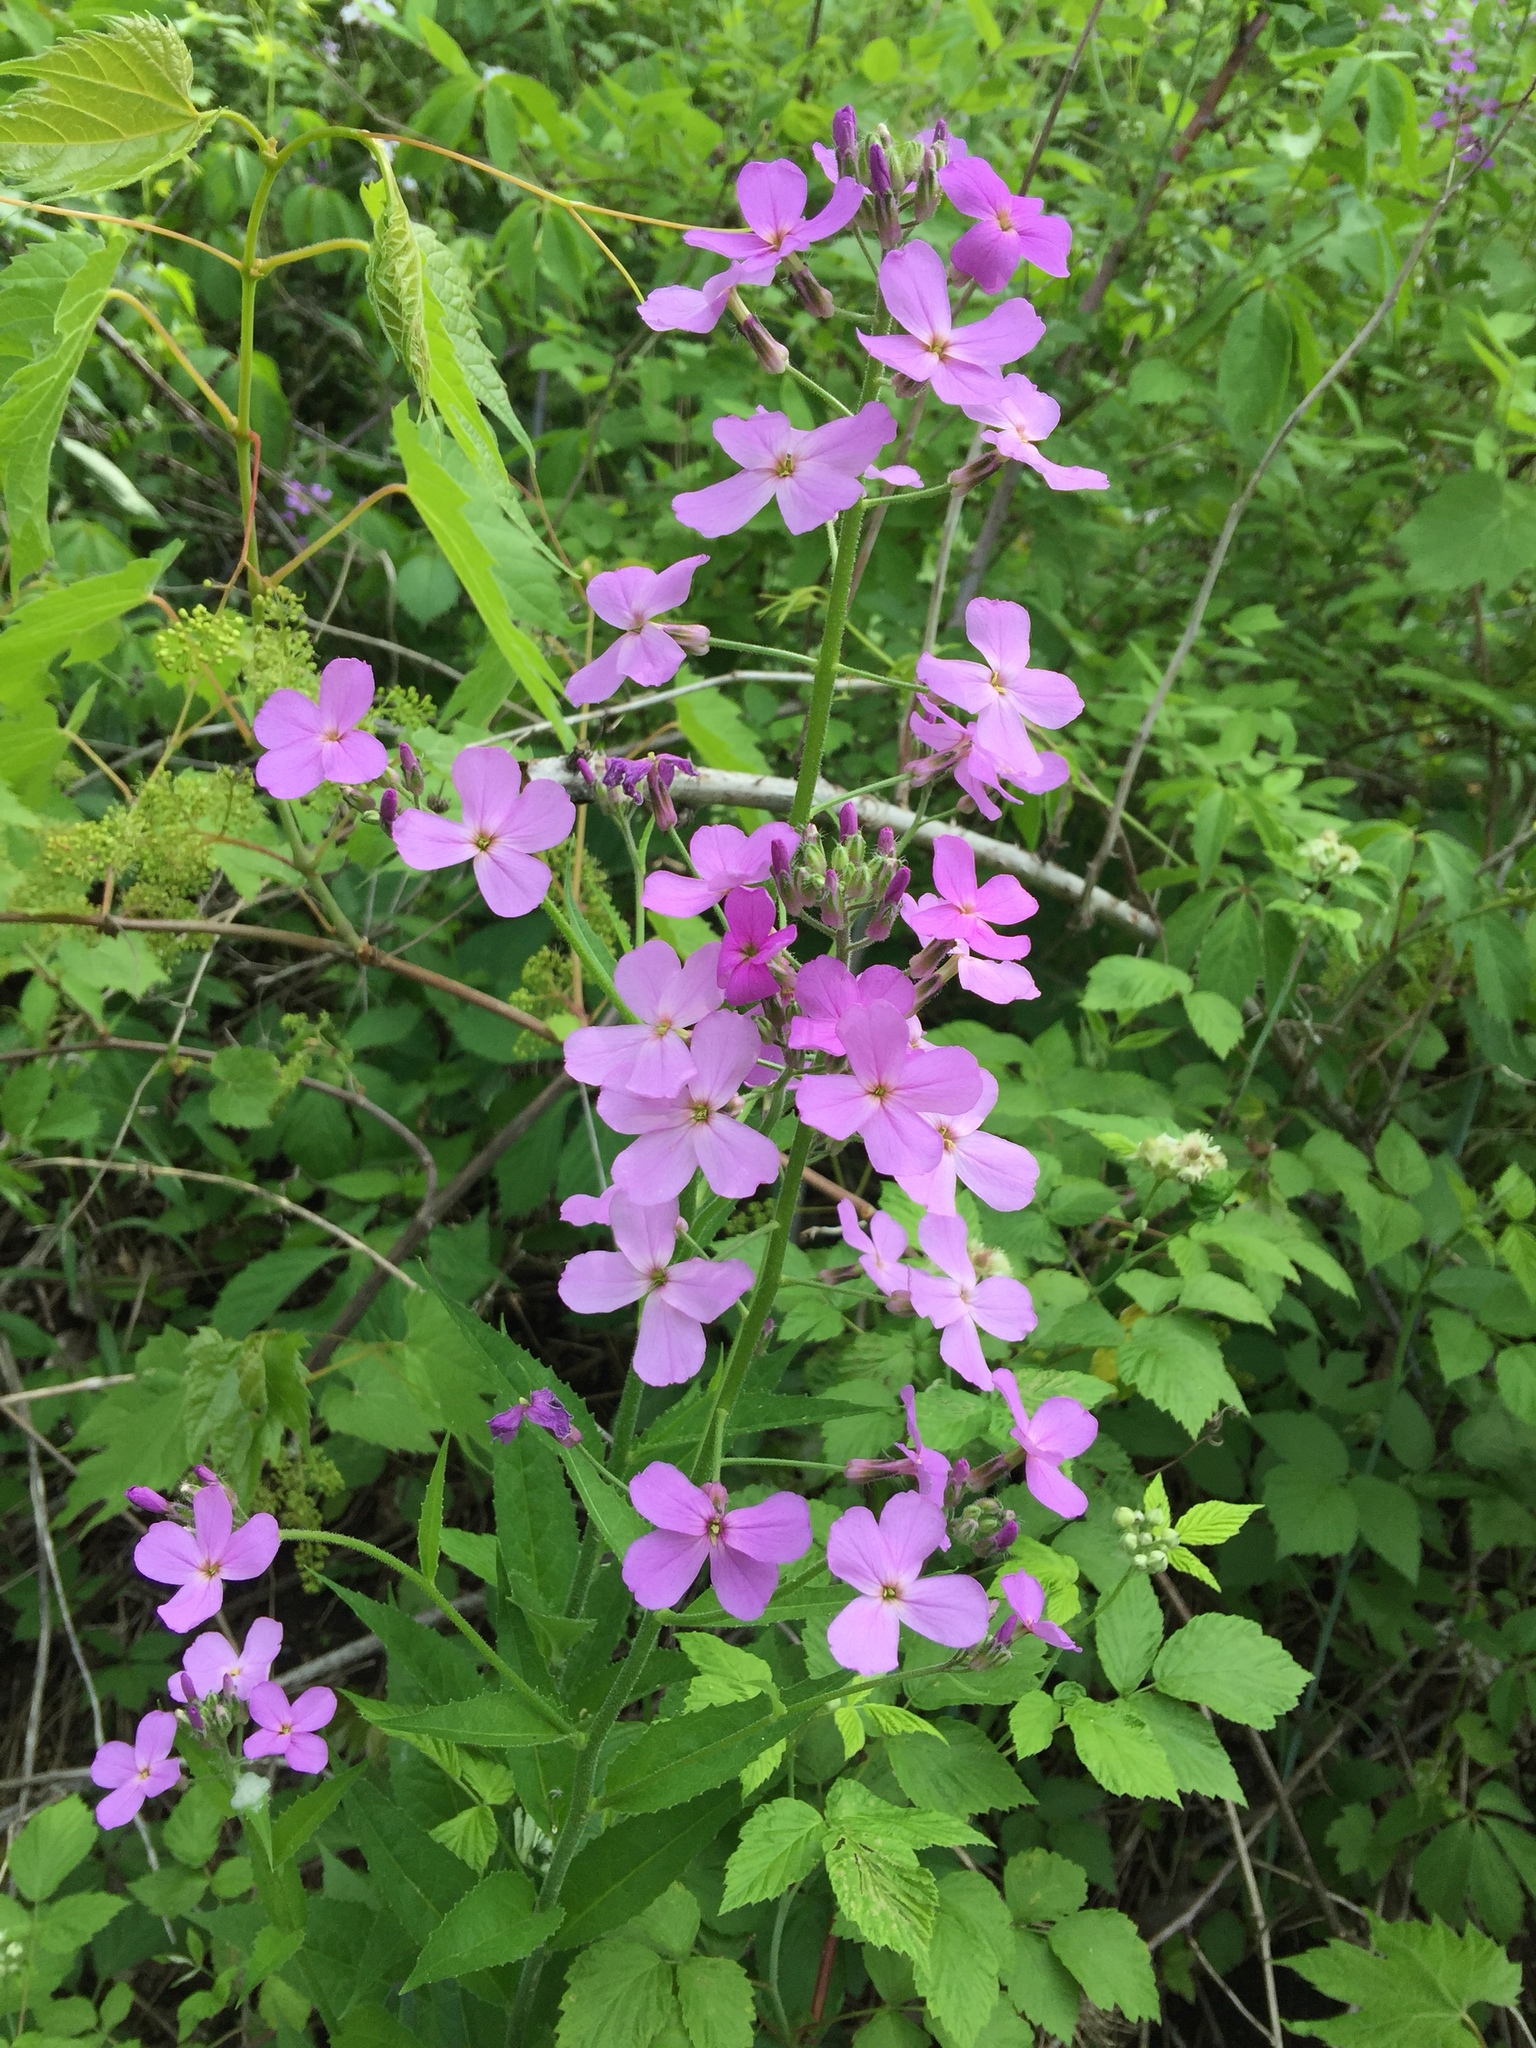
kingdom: Plantae
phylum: Tracheophyta
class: Magnoliopsida
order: Brassicales
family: Brassicaceae
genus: Hesperis
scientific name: Hesperis matronalis
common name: Dame's-violet
